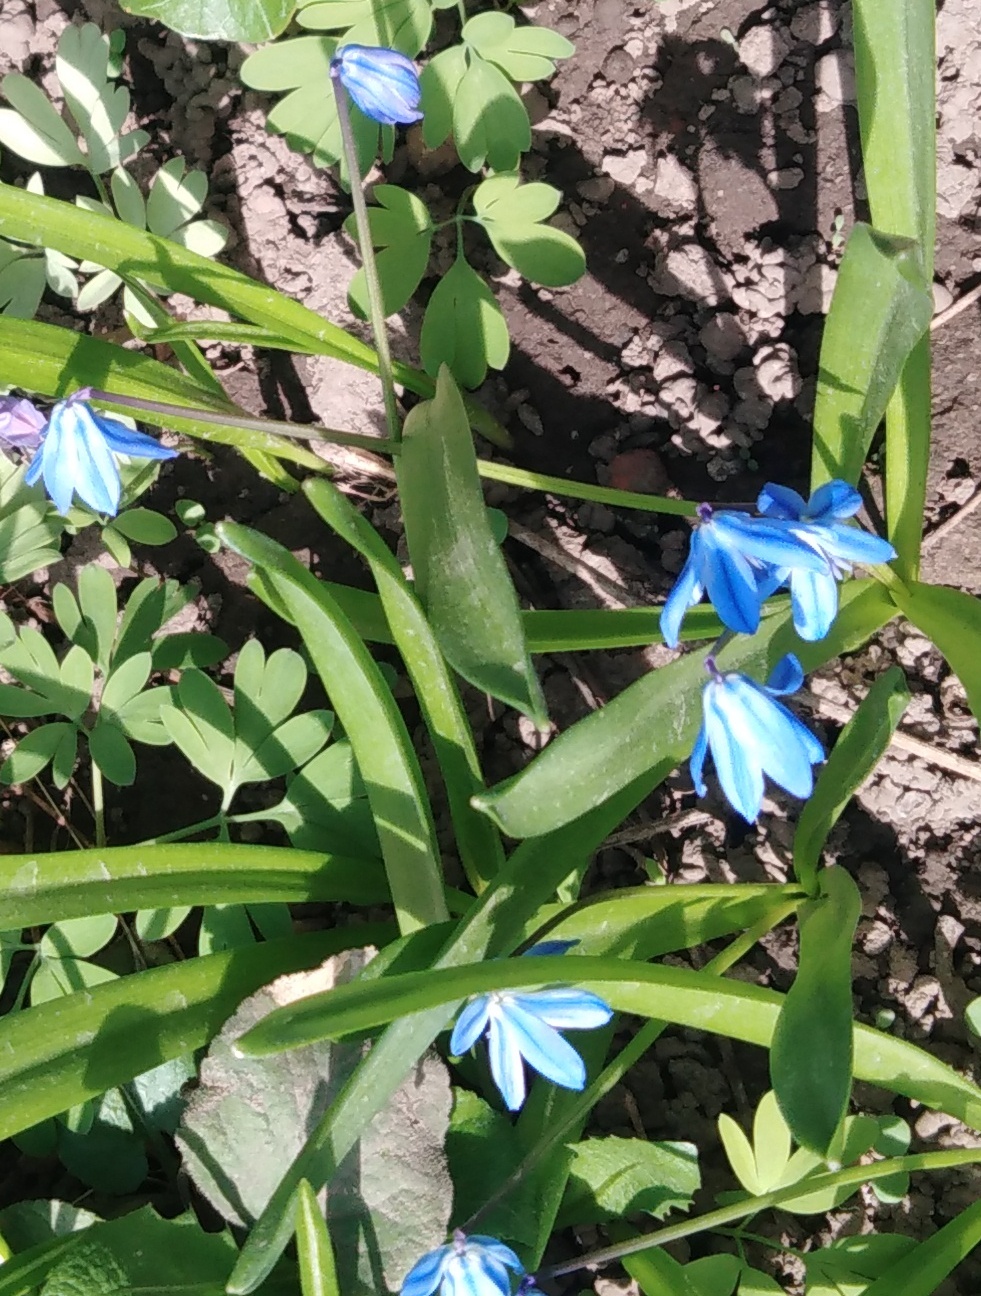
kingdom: Plantae
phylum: Tracheophyta
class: Liliopsida
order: Asparagales
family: Asparagaceae
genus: Scilla
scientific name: Scilla siberica
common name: Siberian squill
